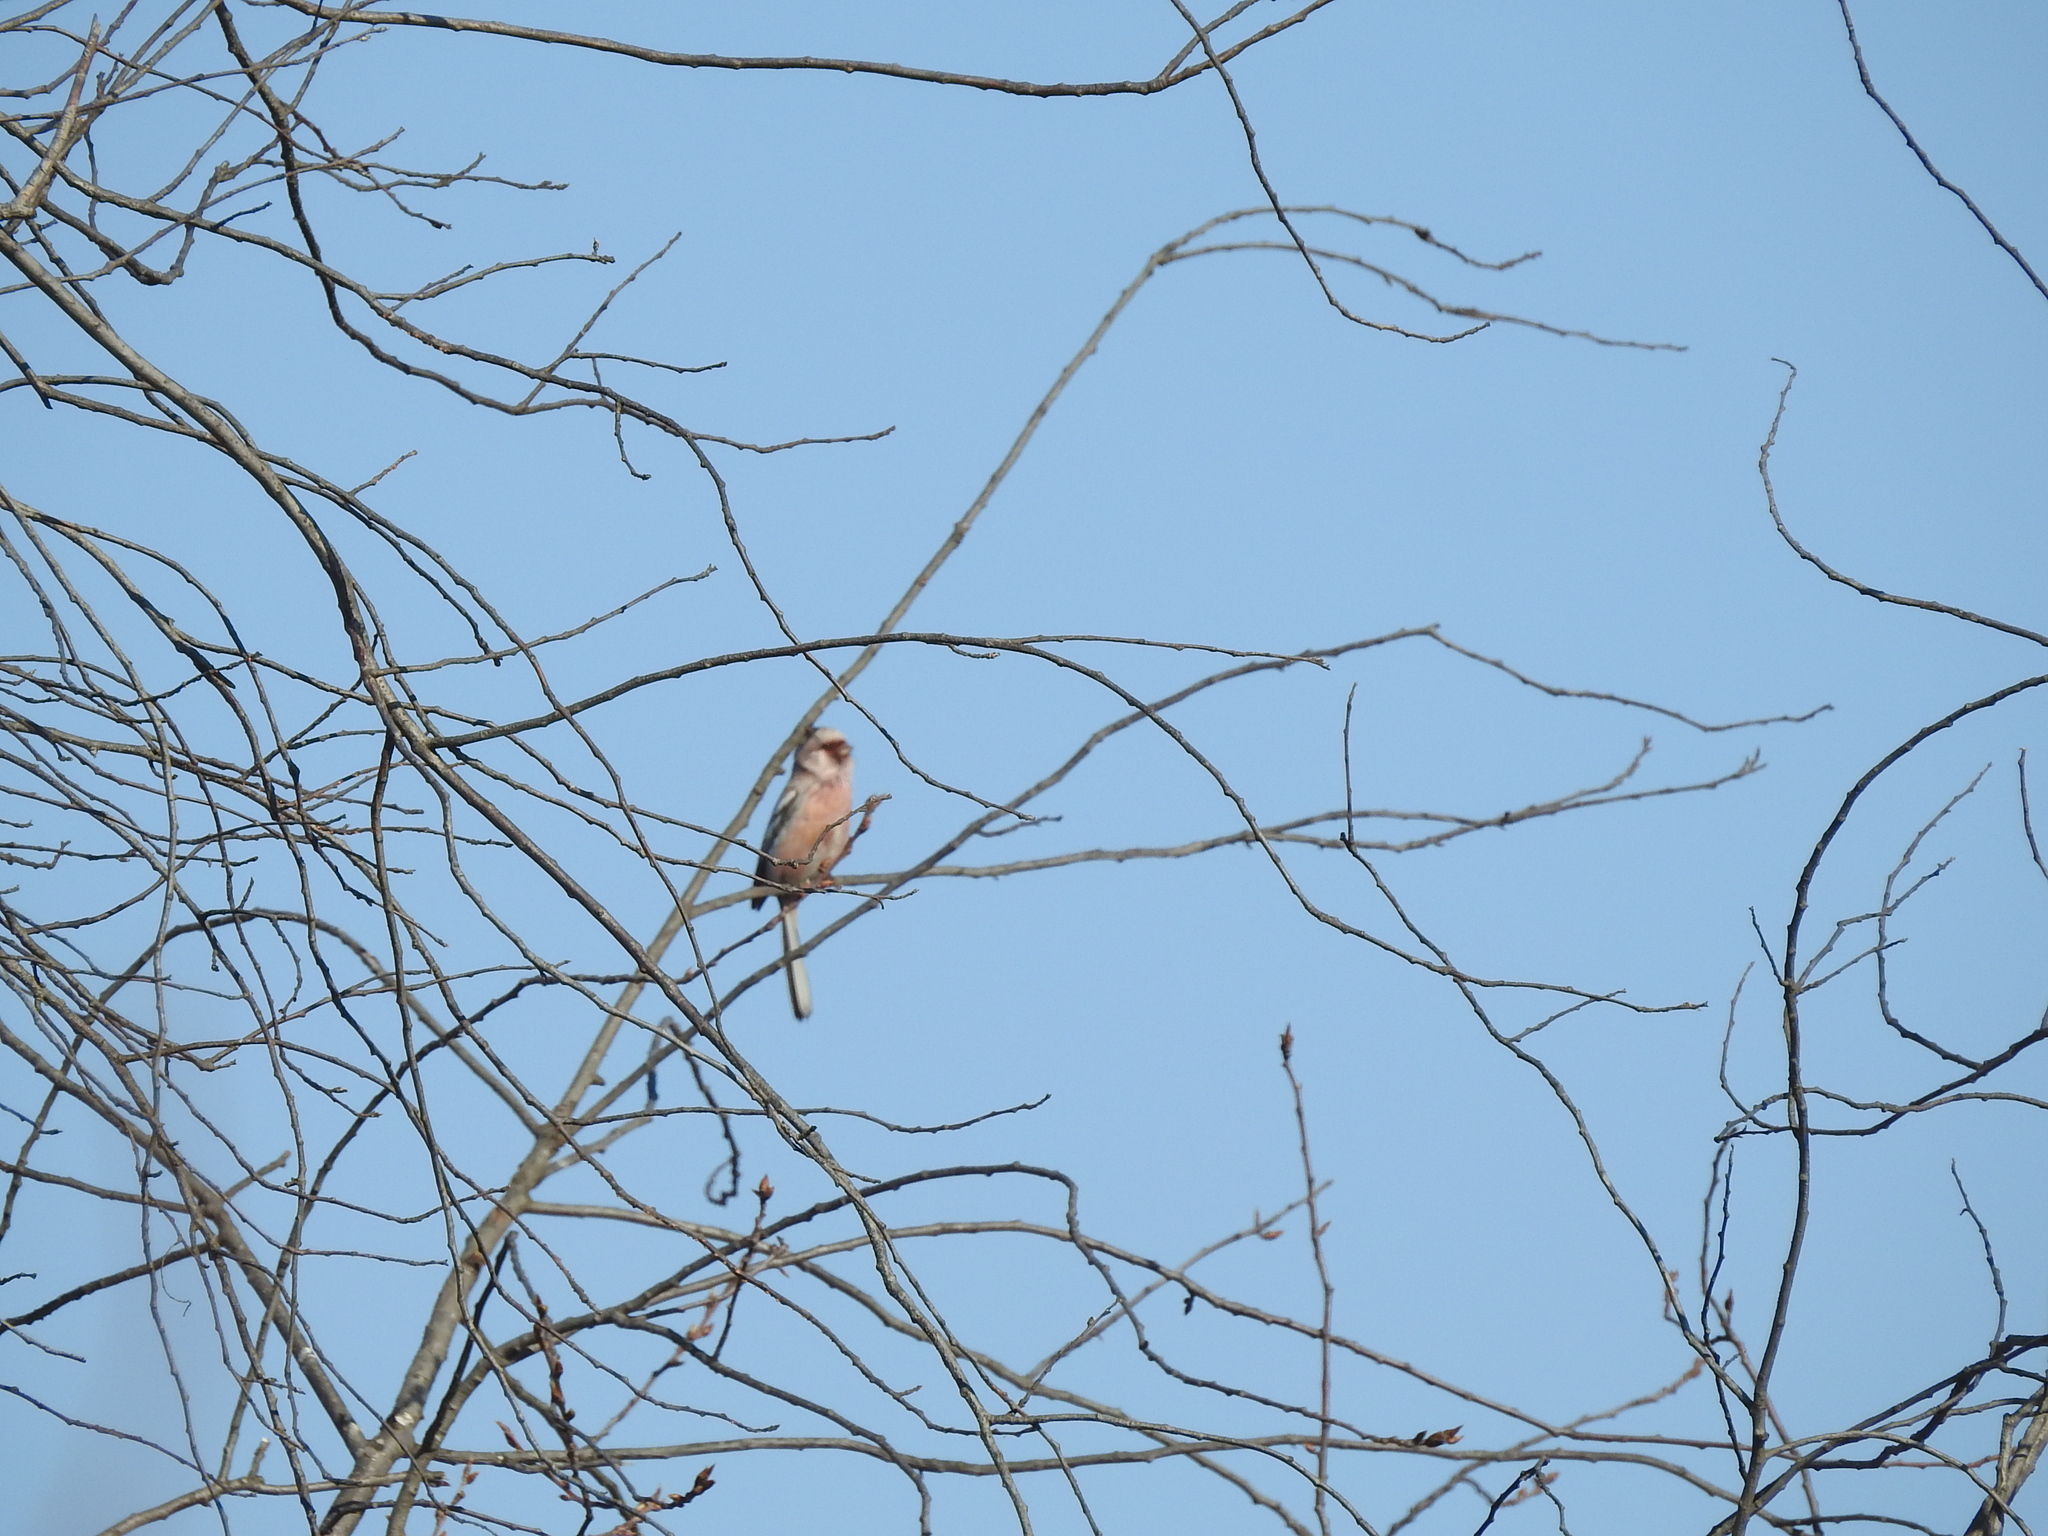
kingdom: Animalia
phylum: Chordata
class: Aves
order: Passeriformes
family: Fringillidae
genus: Carpodacus
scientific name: Carpodacus sibiricus
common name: Long-tailed rosefinch
